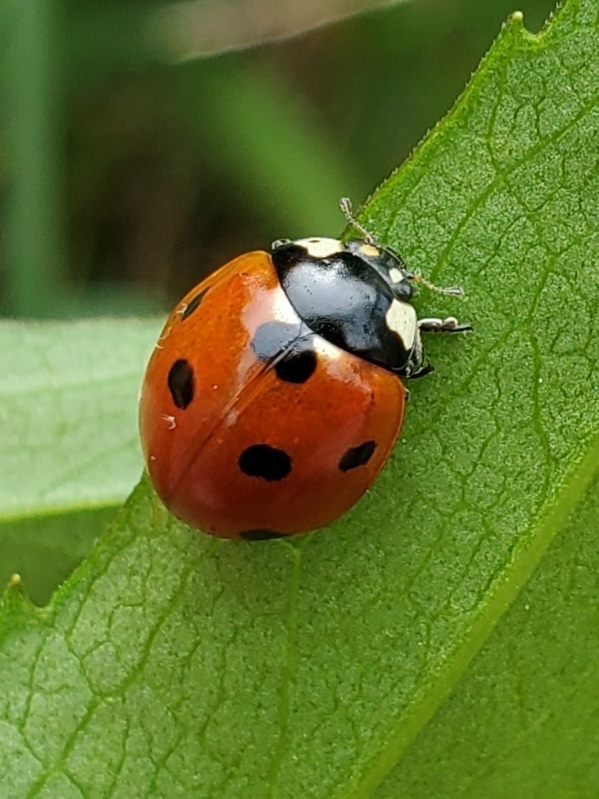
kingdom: Animalia
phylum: Arthropoda
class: Insecta
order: Coleoptera
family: Coccinellidae
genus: Coccinella
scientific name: Coccinella septempunctata
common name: Sevenspotted lady beetle
